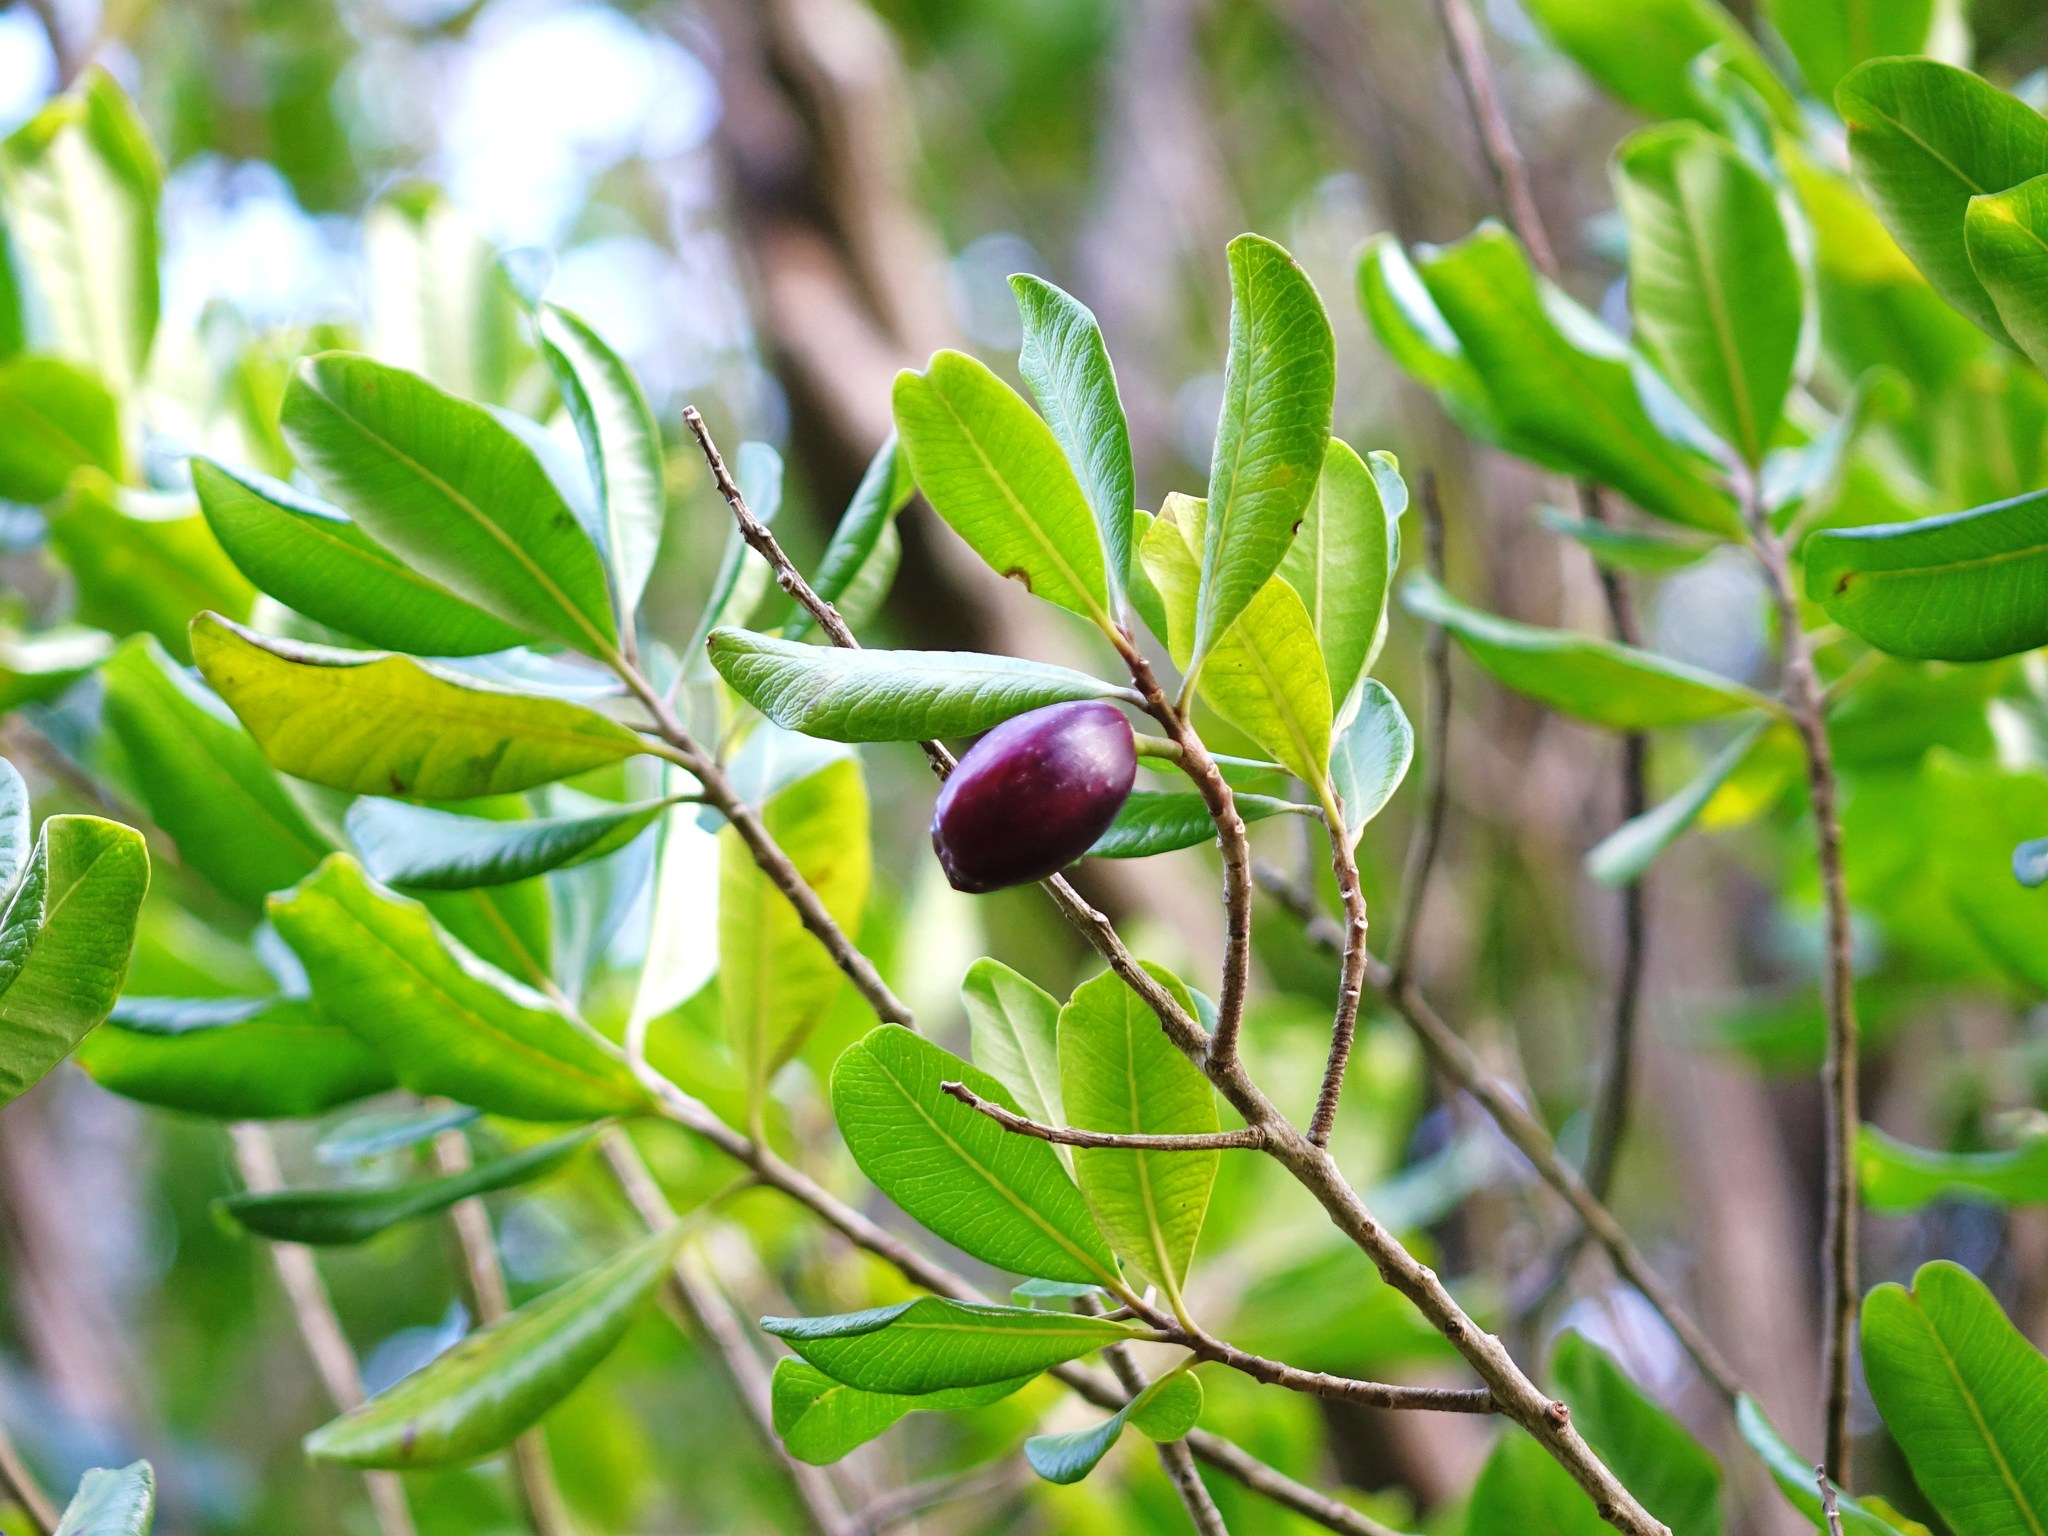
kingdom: Plantae
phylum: Tracheophyta
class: Magnoliopsida
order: Ericales
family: Sapotaceae
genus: Planchonella
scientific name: Planchonella costata
